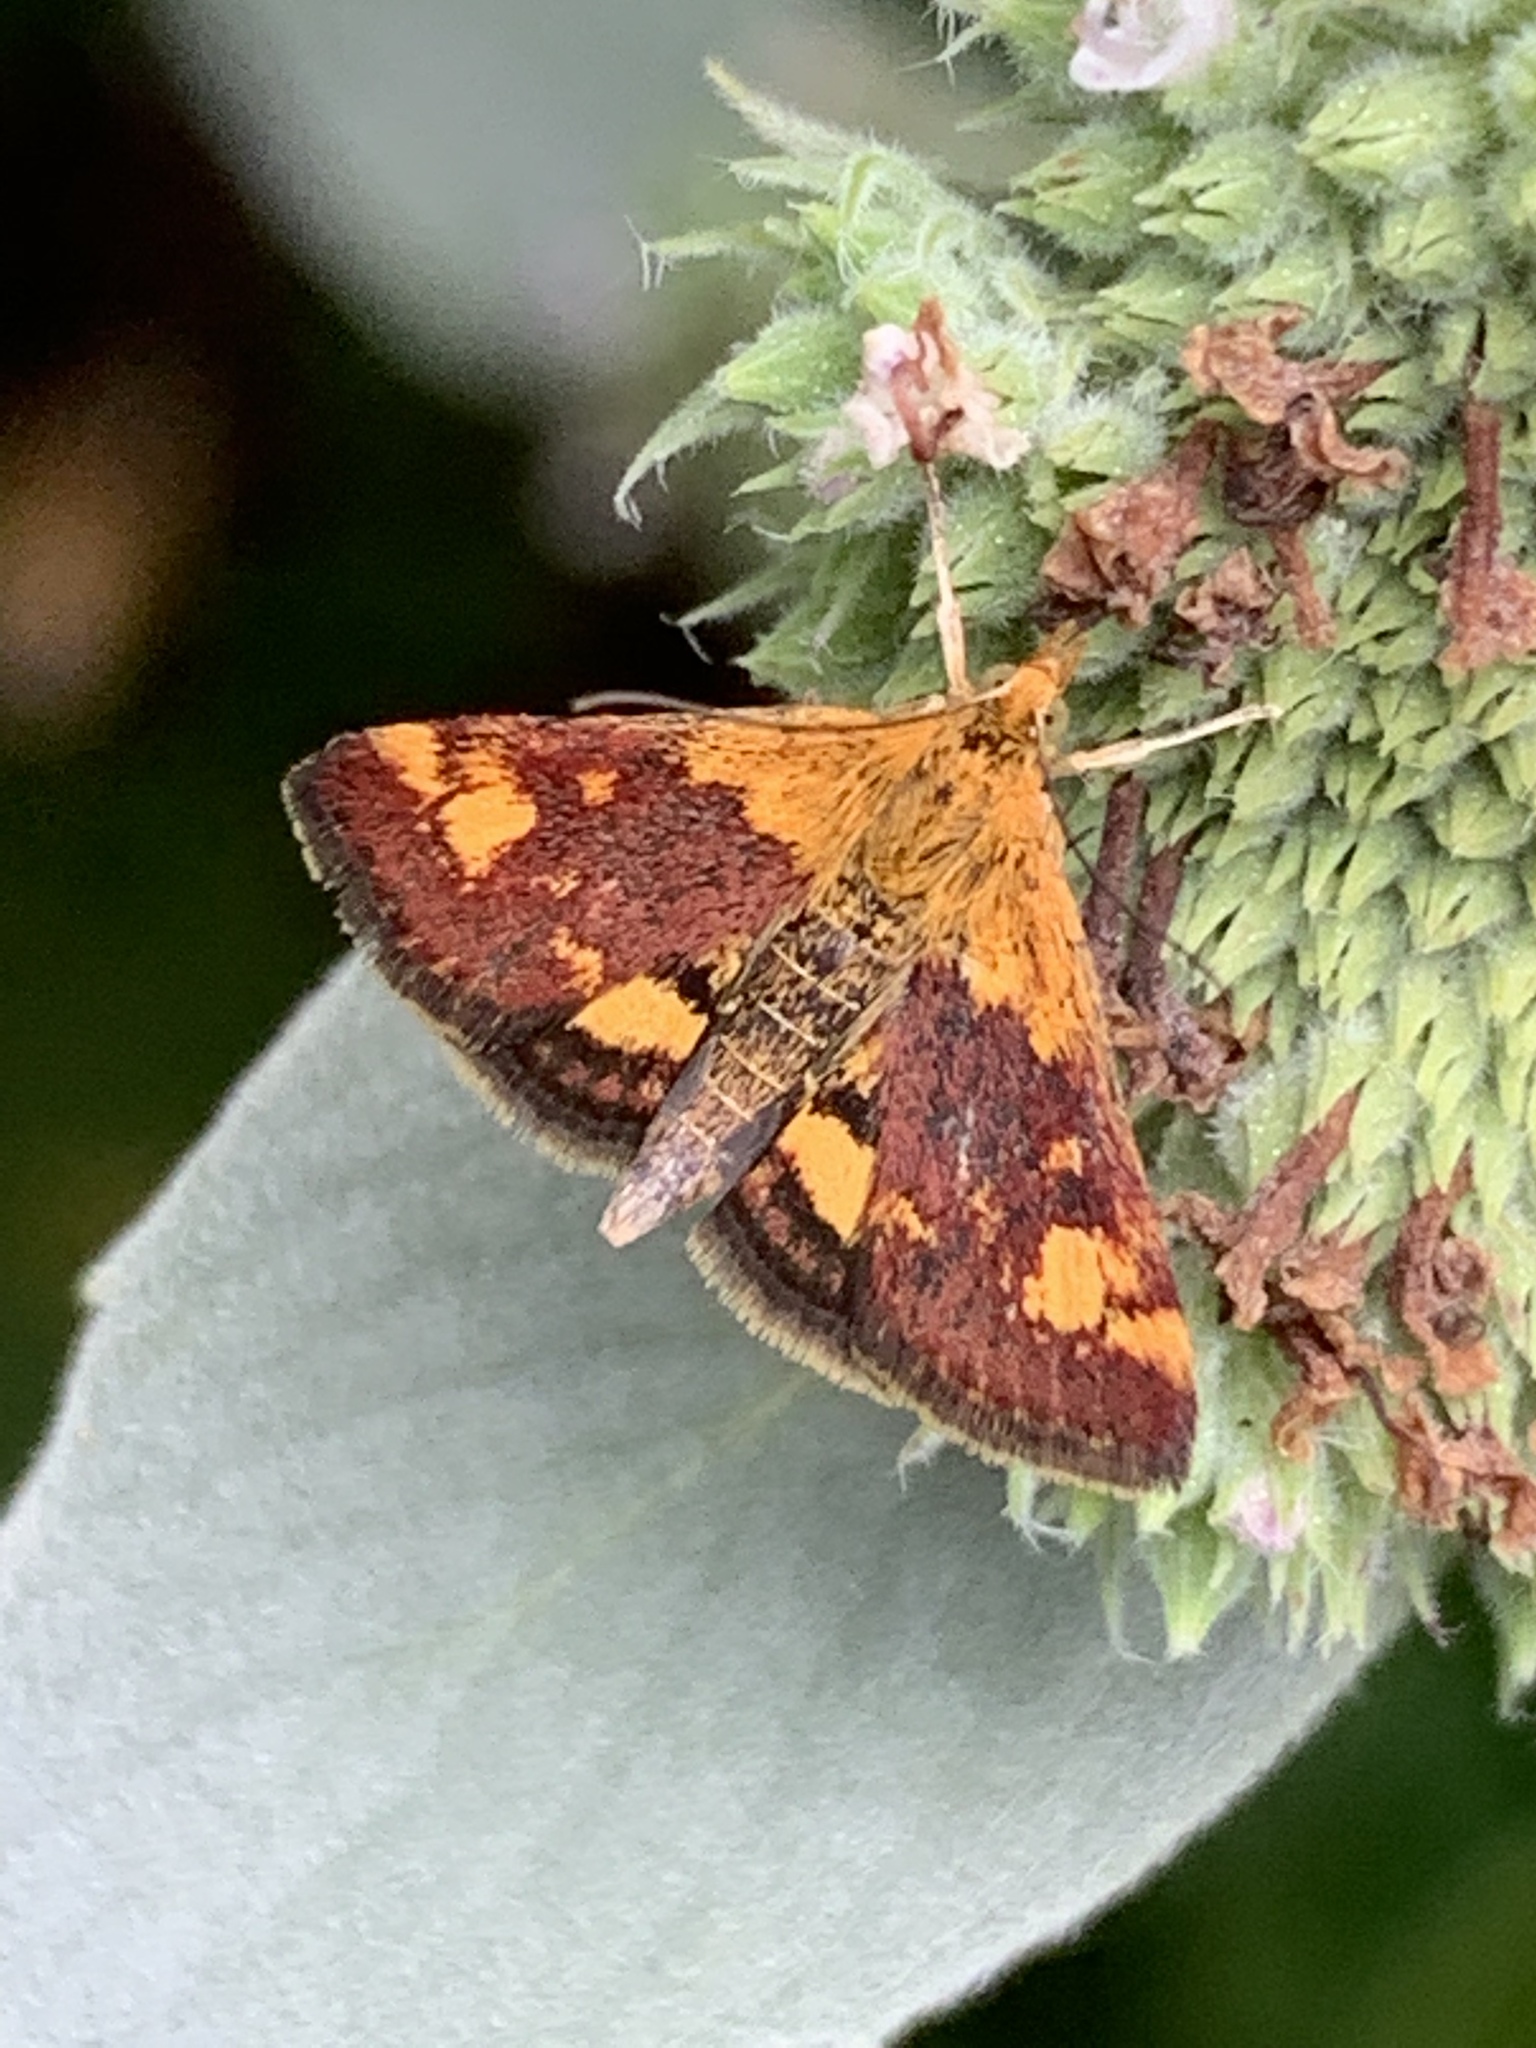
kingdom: Animalia
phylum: Arthropoda
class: Insecta
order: Lepidoptera
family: Crambidae
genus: Pyrausta
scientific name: Pyrausta orphisalis
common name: Orange mint moth
